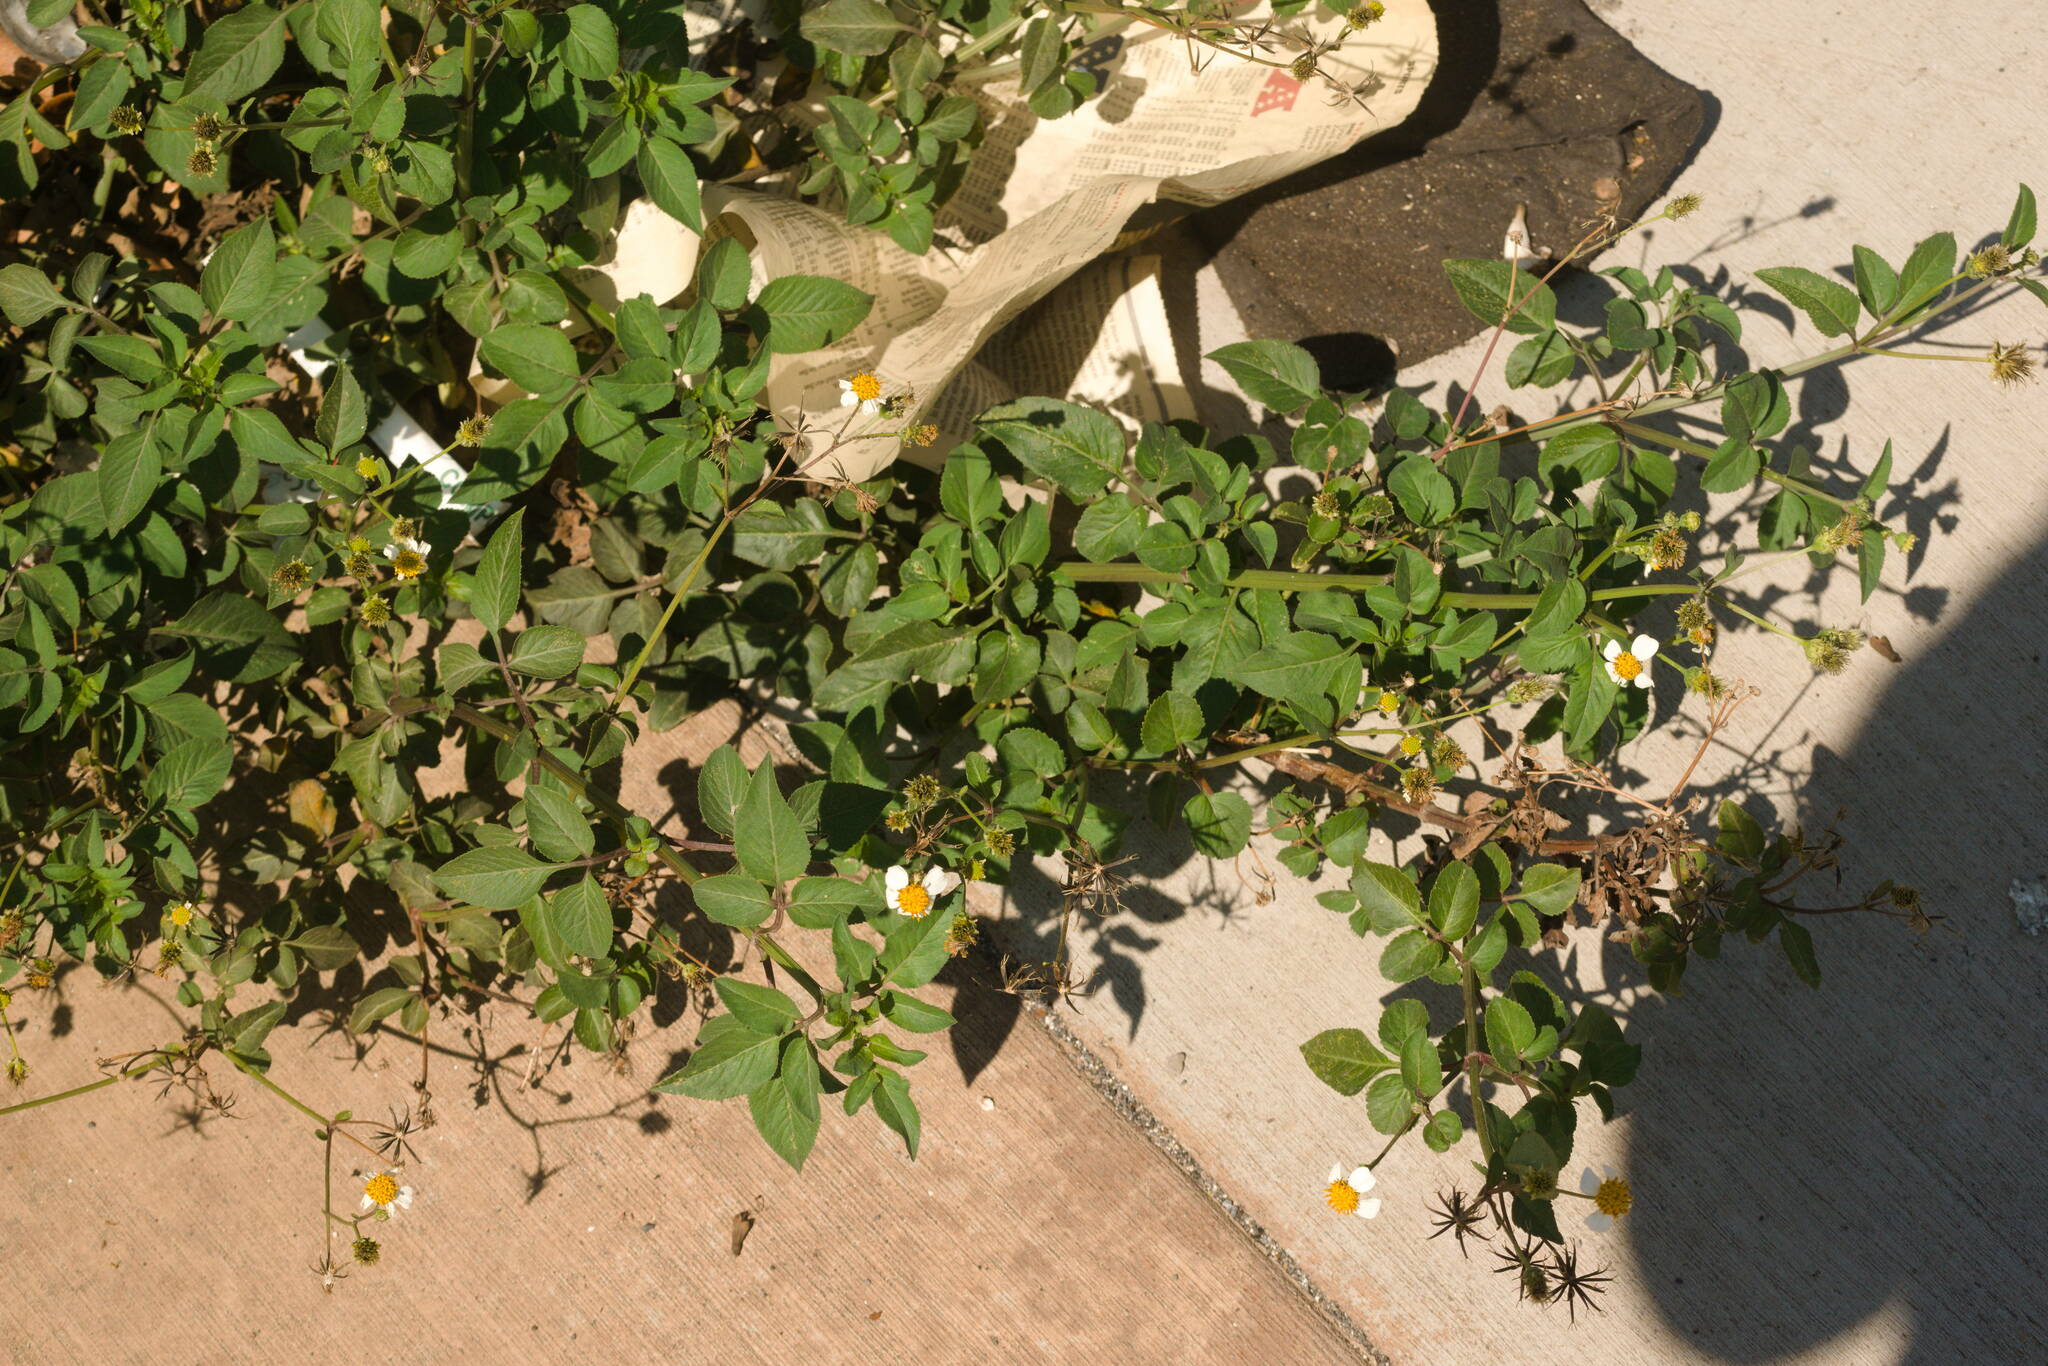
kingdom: Plantae
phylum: Tracheophyta
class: Magnoliopsida
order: Asterales
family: Asteraceae
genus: Bidens
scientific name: Bidens alba
